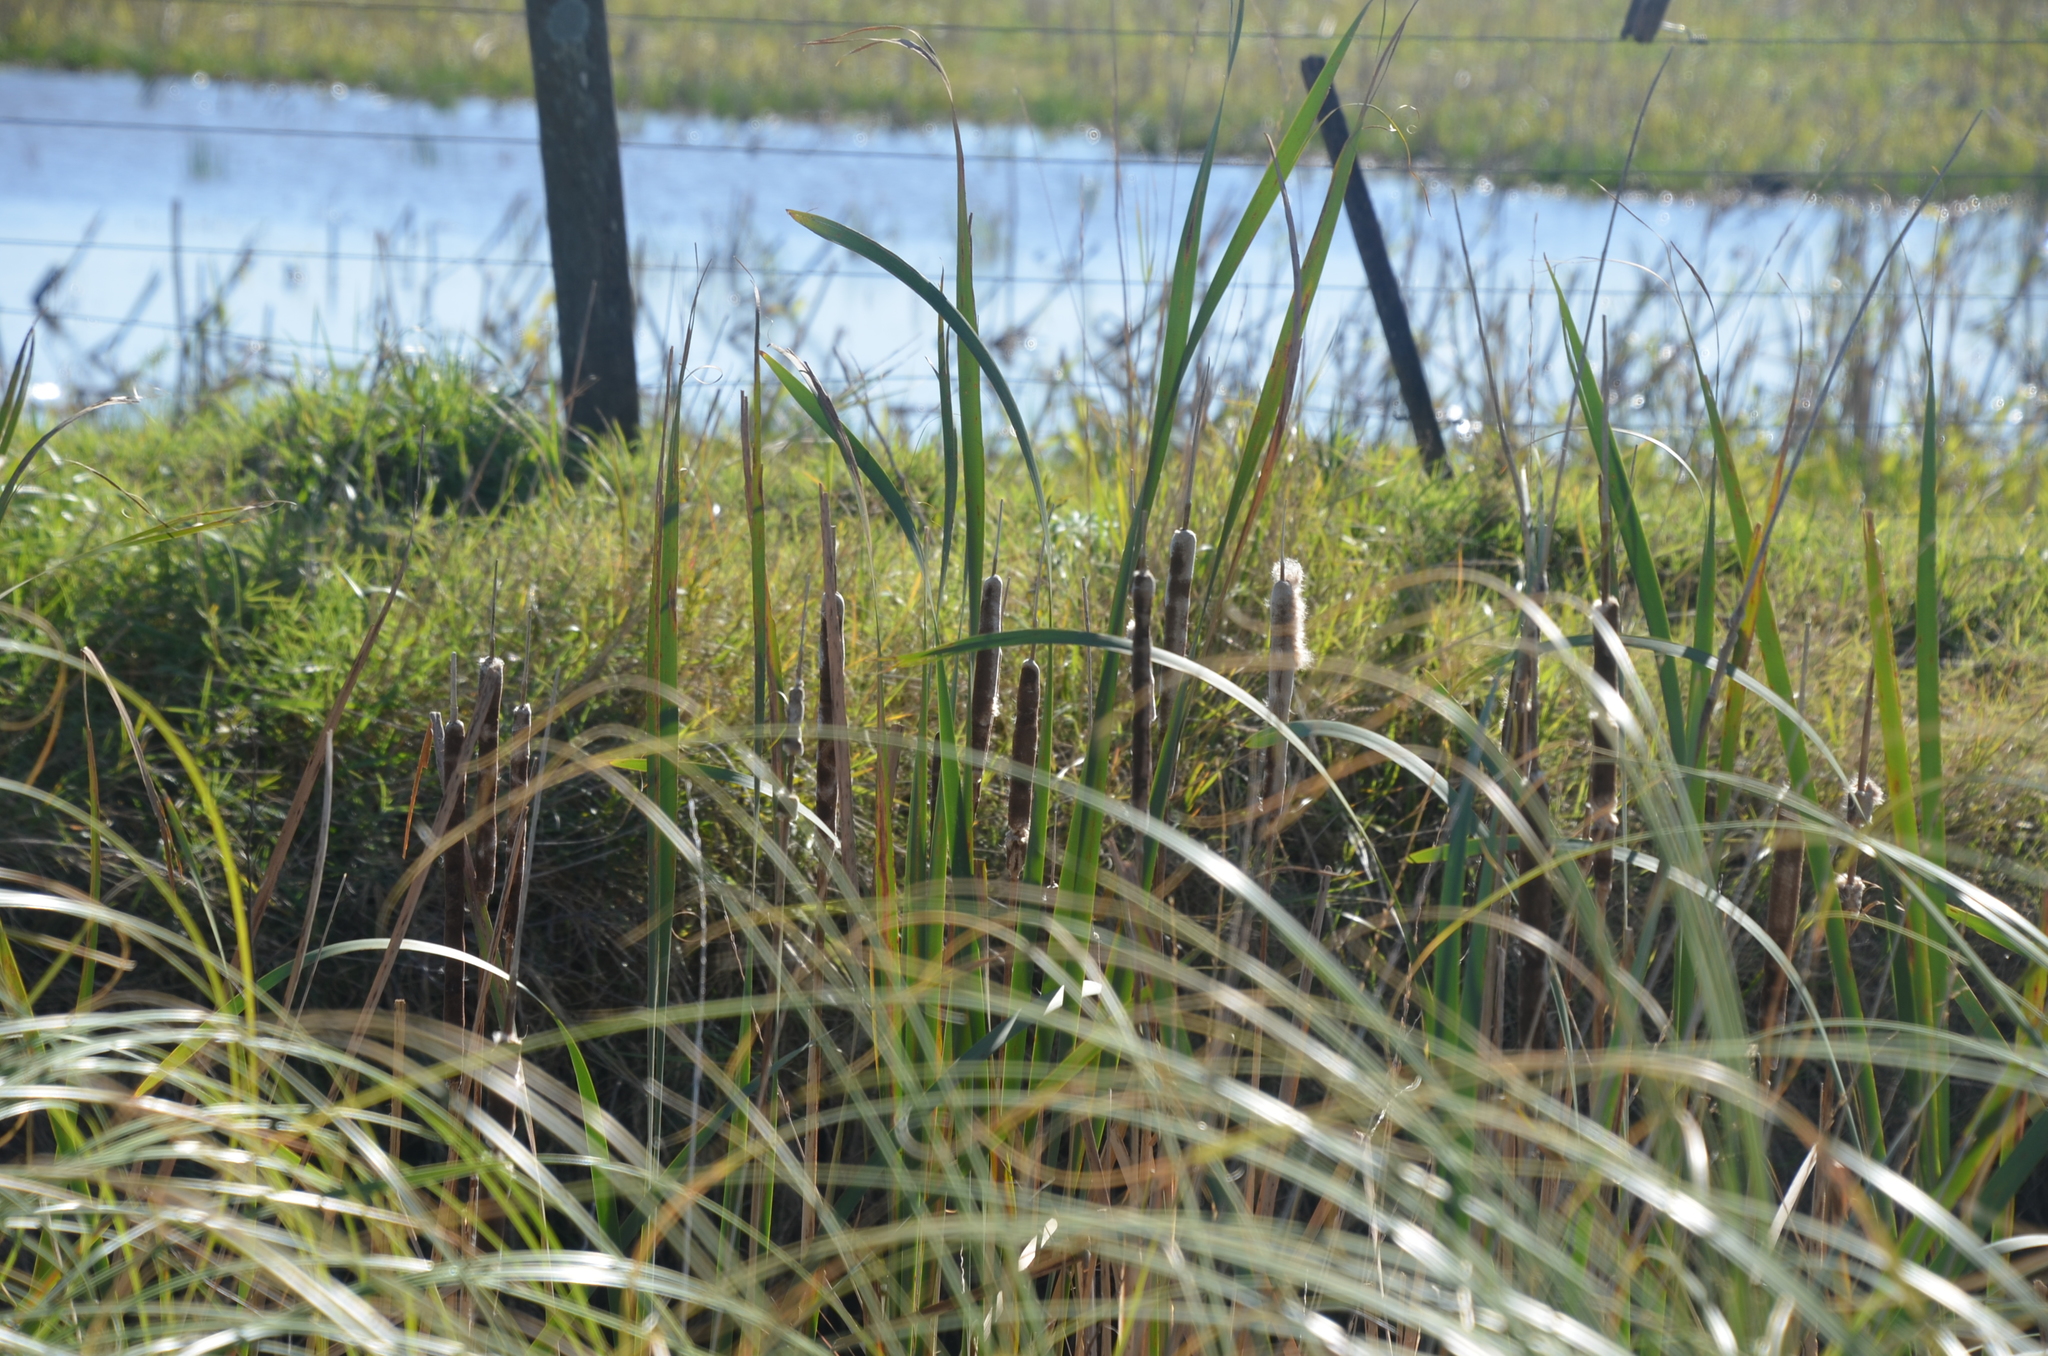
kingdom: Plantae
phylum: Tracheophyta
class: Liliopsida
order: Poales
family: Typhaceae
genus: Typha
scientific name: Typha latifolia
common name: Broadleaf cattail
